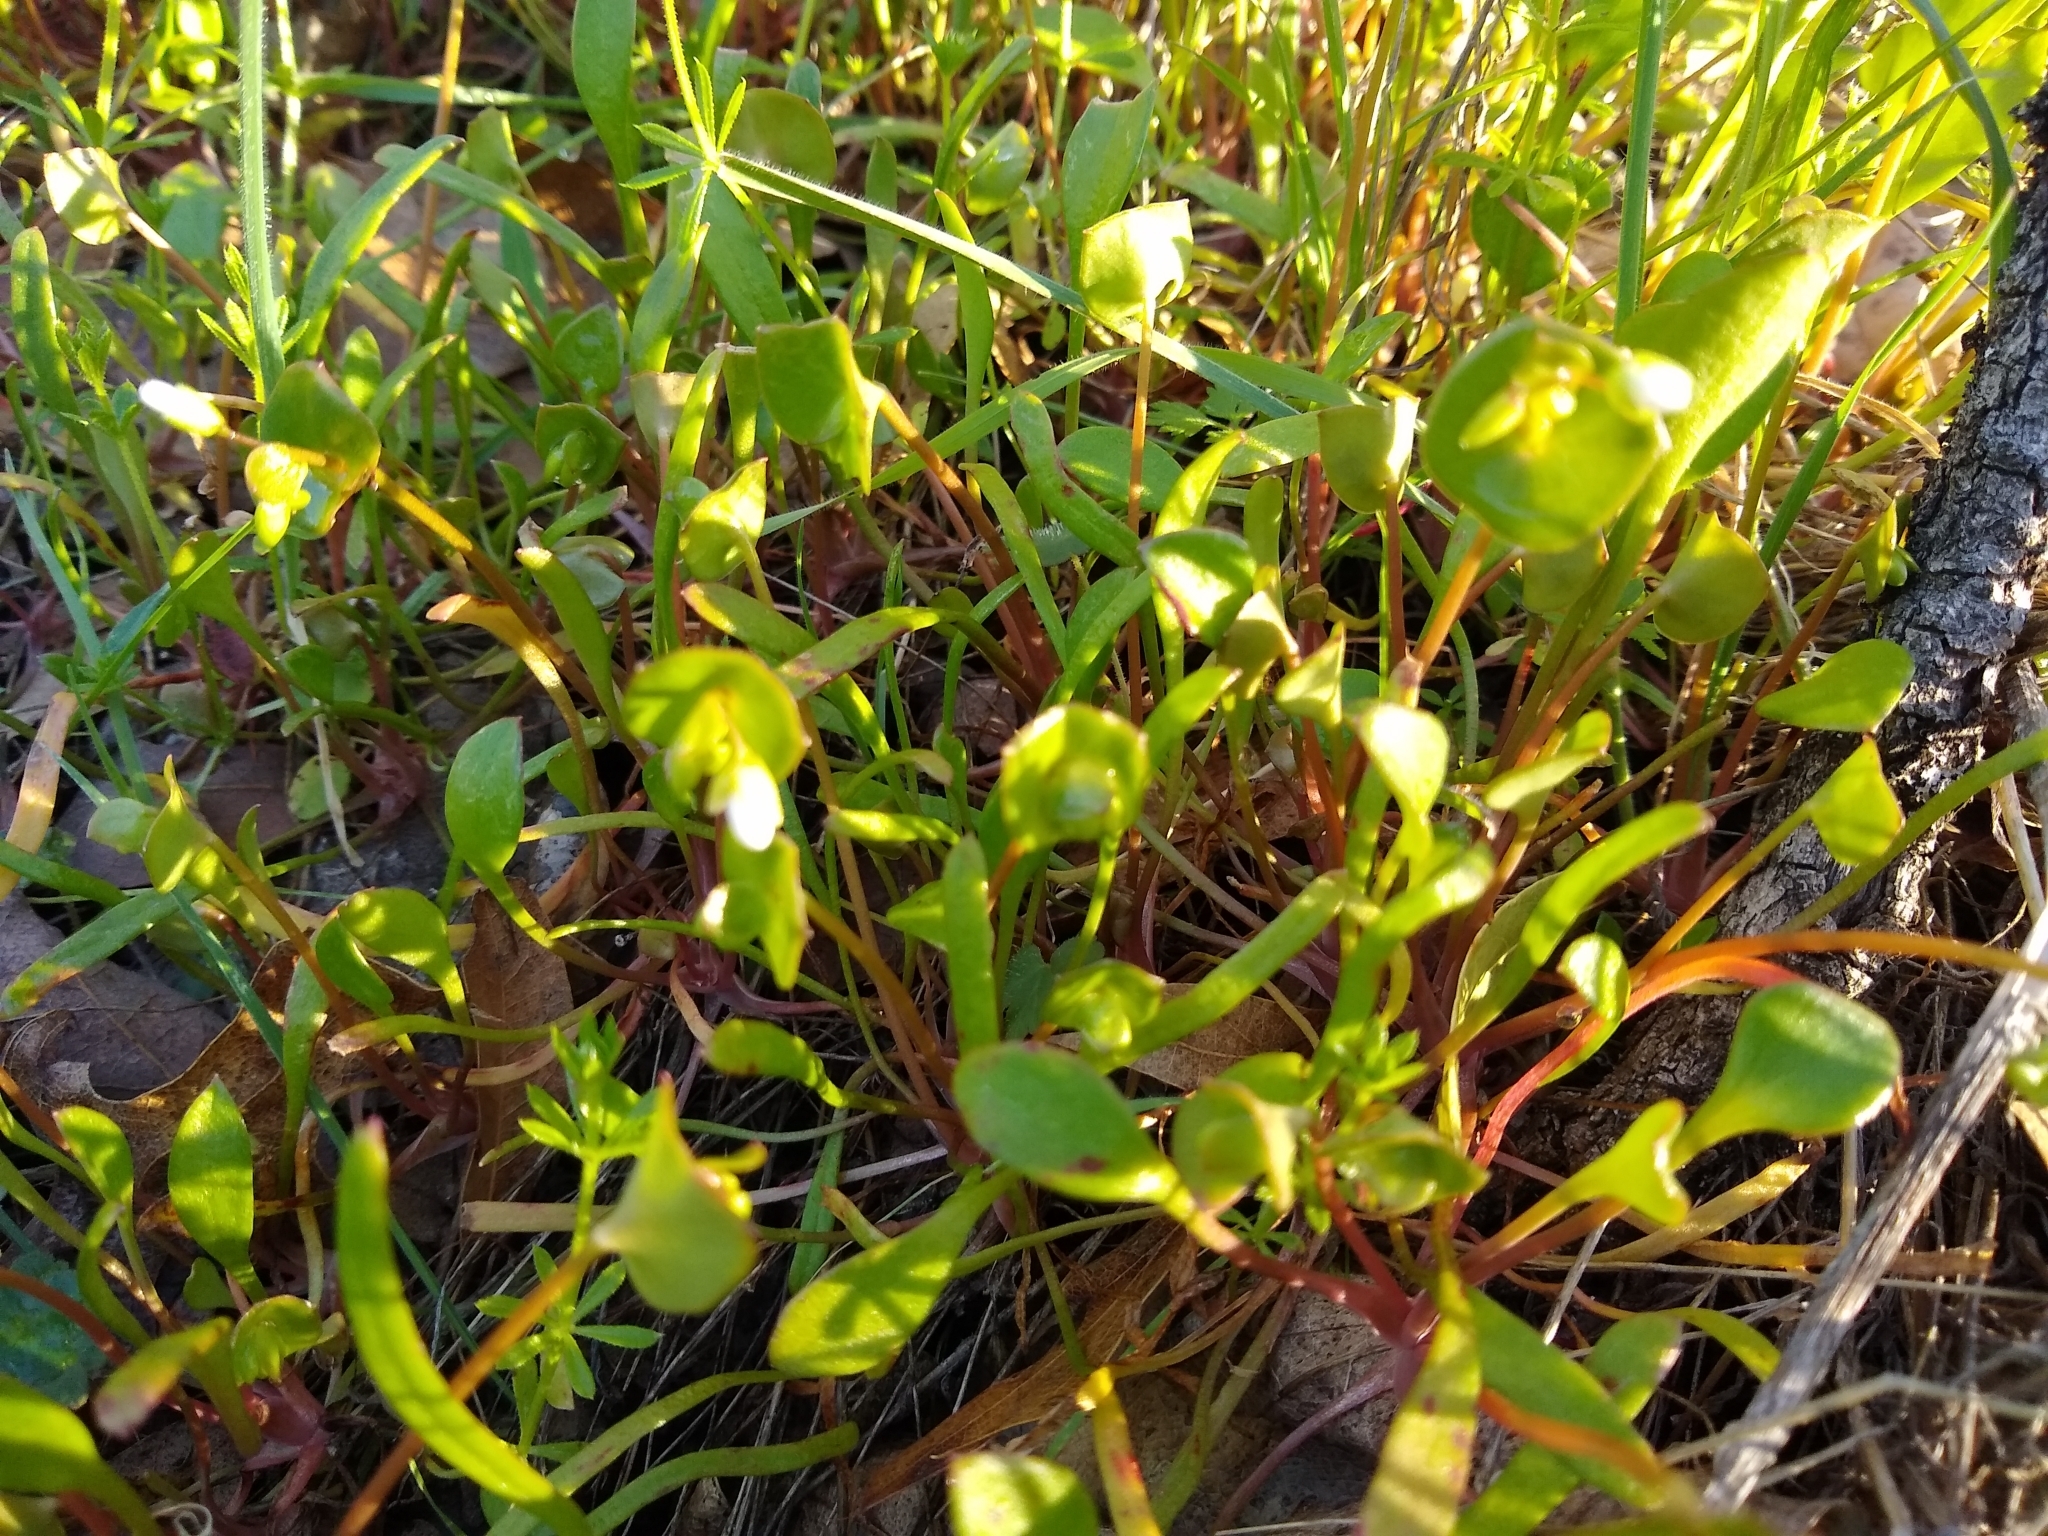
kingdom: Plantae
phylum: Tracheophyta
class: Magnoliopsida
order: Caryophyllales
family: Montiaceae
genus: Claytonia
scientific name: Claytonia perfoliata
